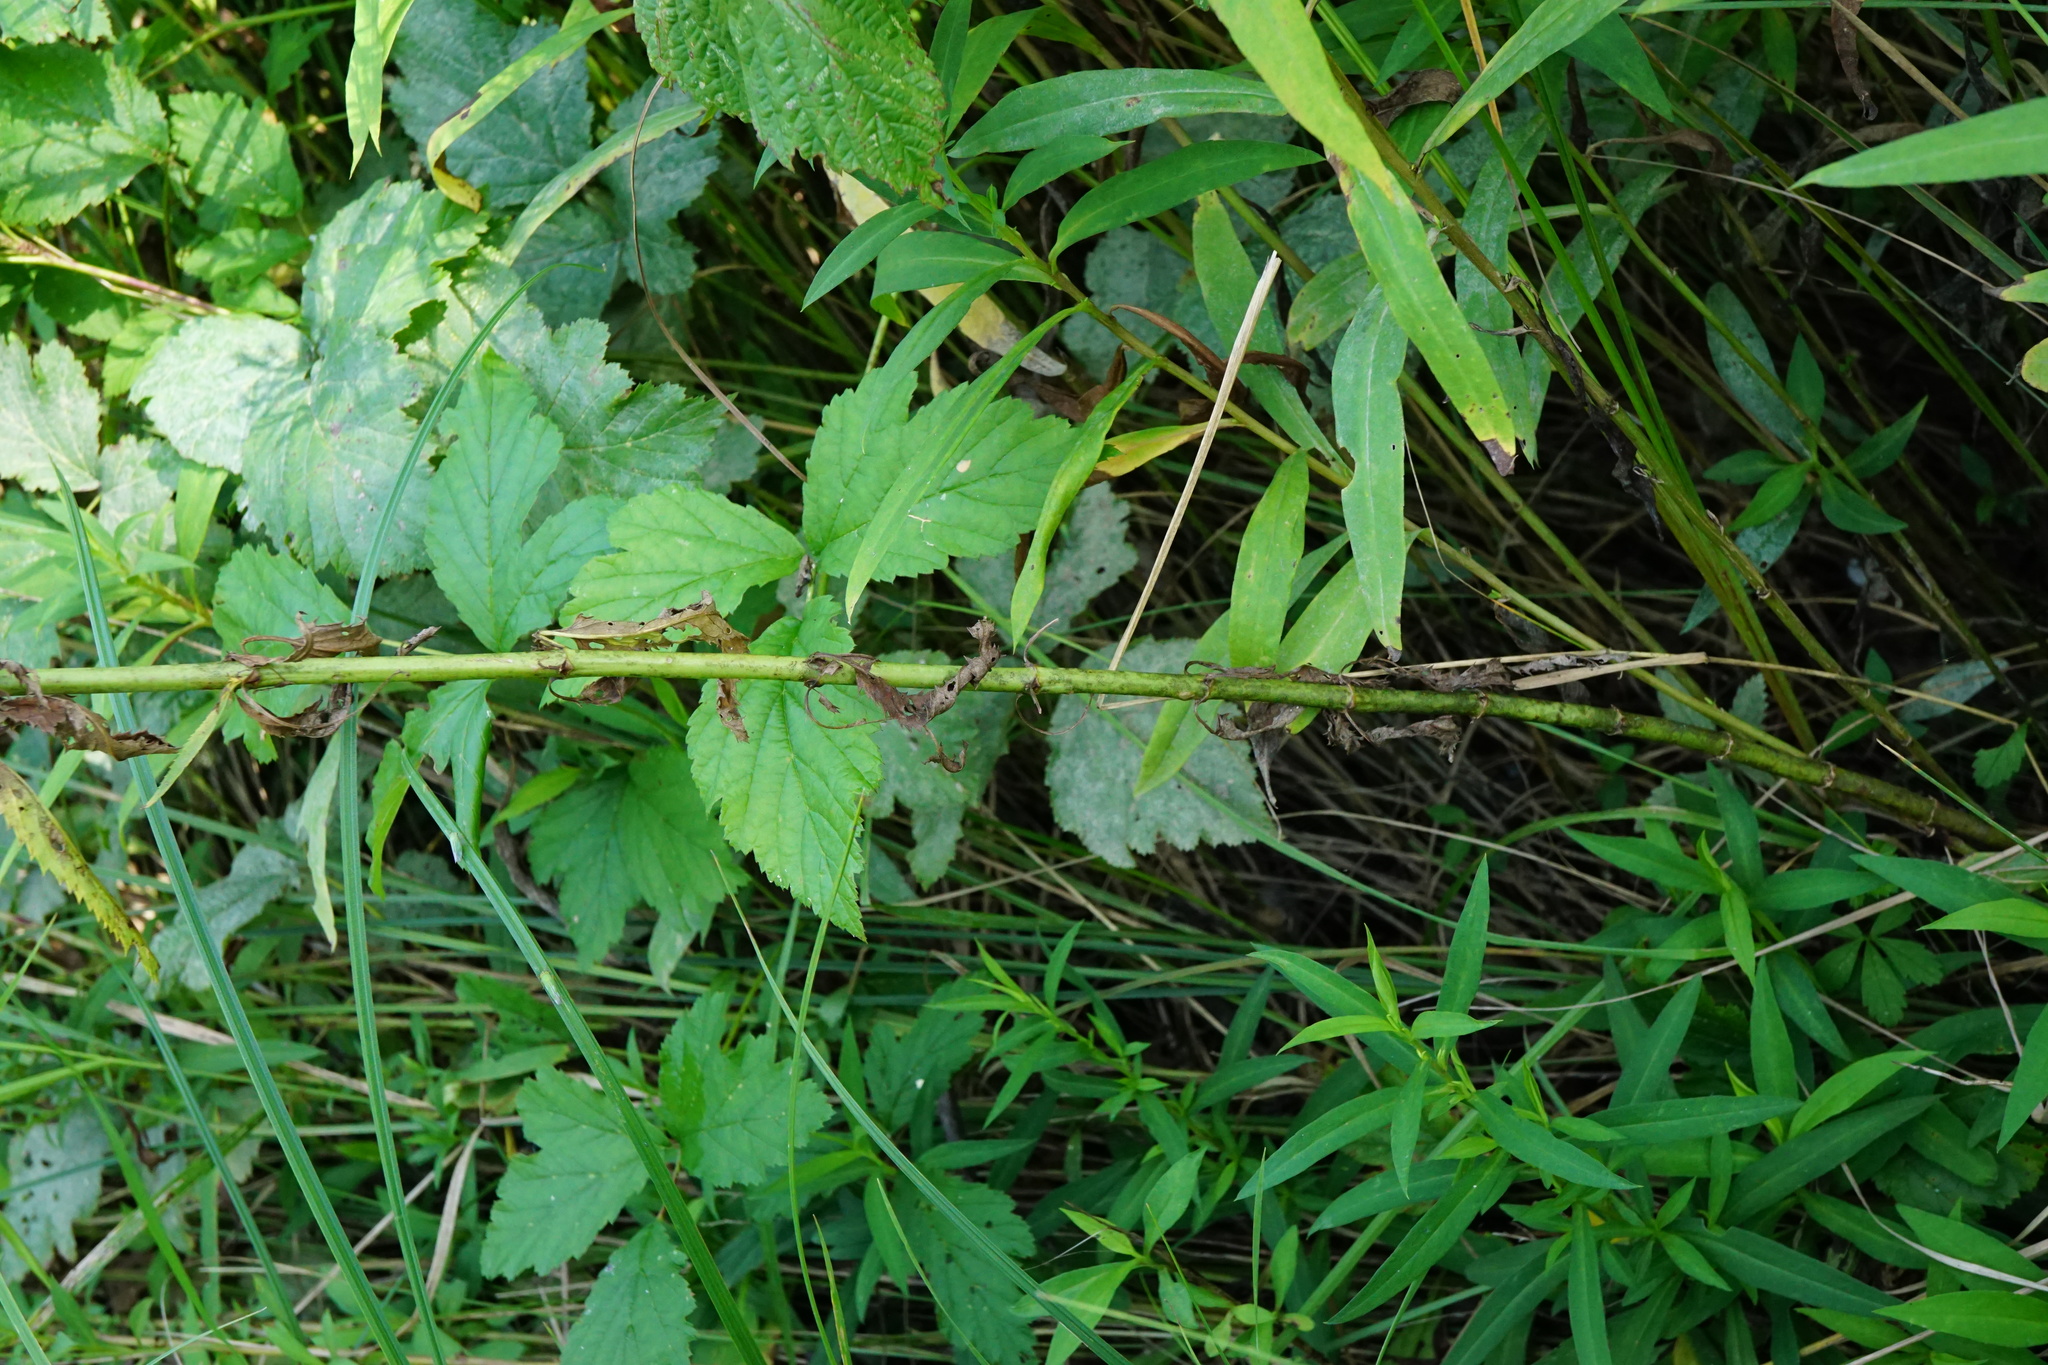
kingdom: Plantae
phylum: Tracheophyta
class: Magnoliopsida
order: Lamiales
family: Plantaginaceae
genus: Veronica
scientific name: Veronica longifolia
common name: Garden speedwell
